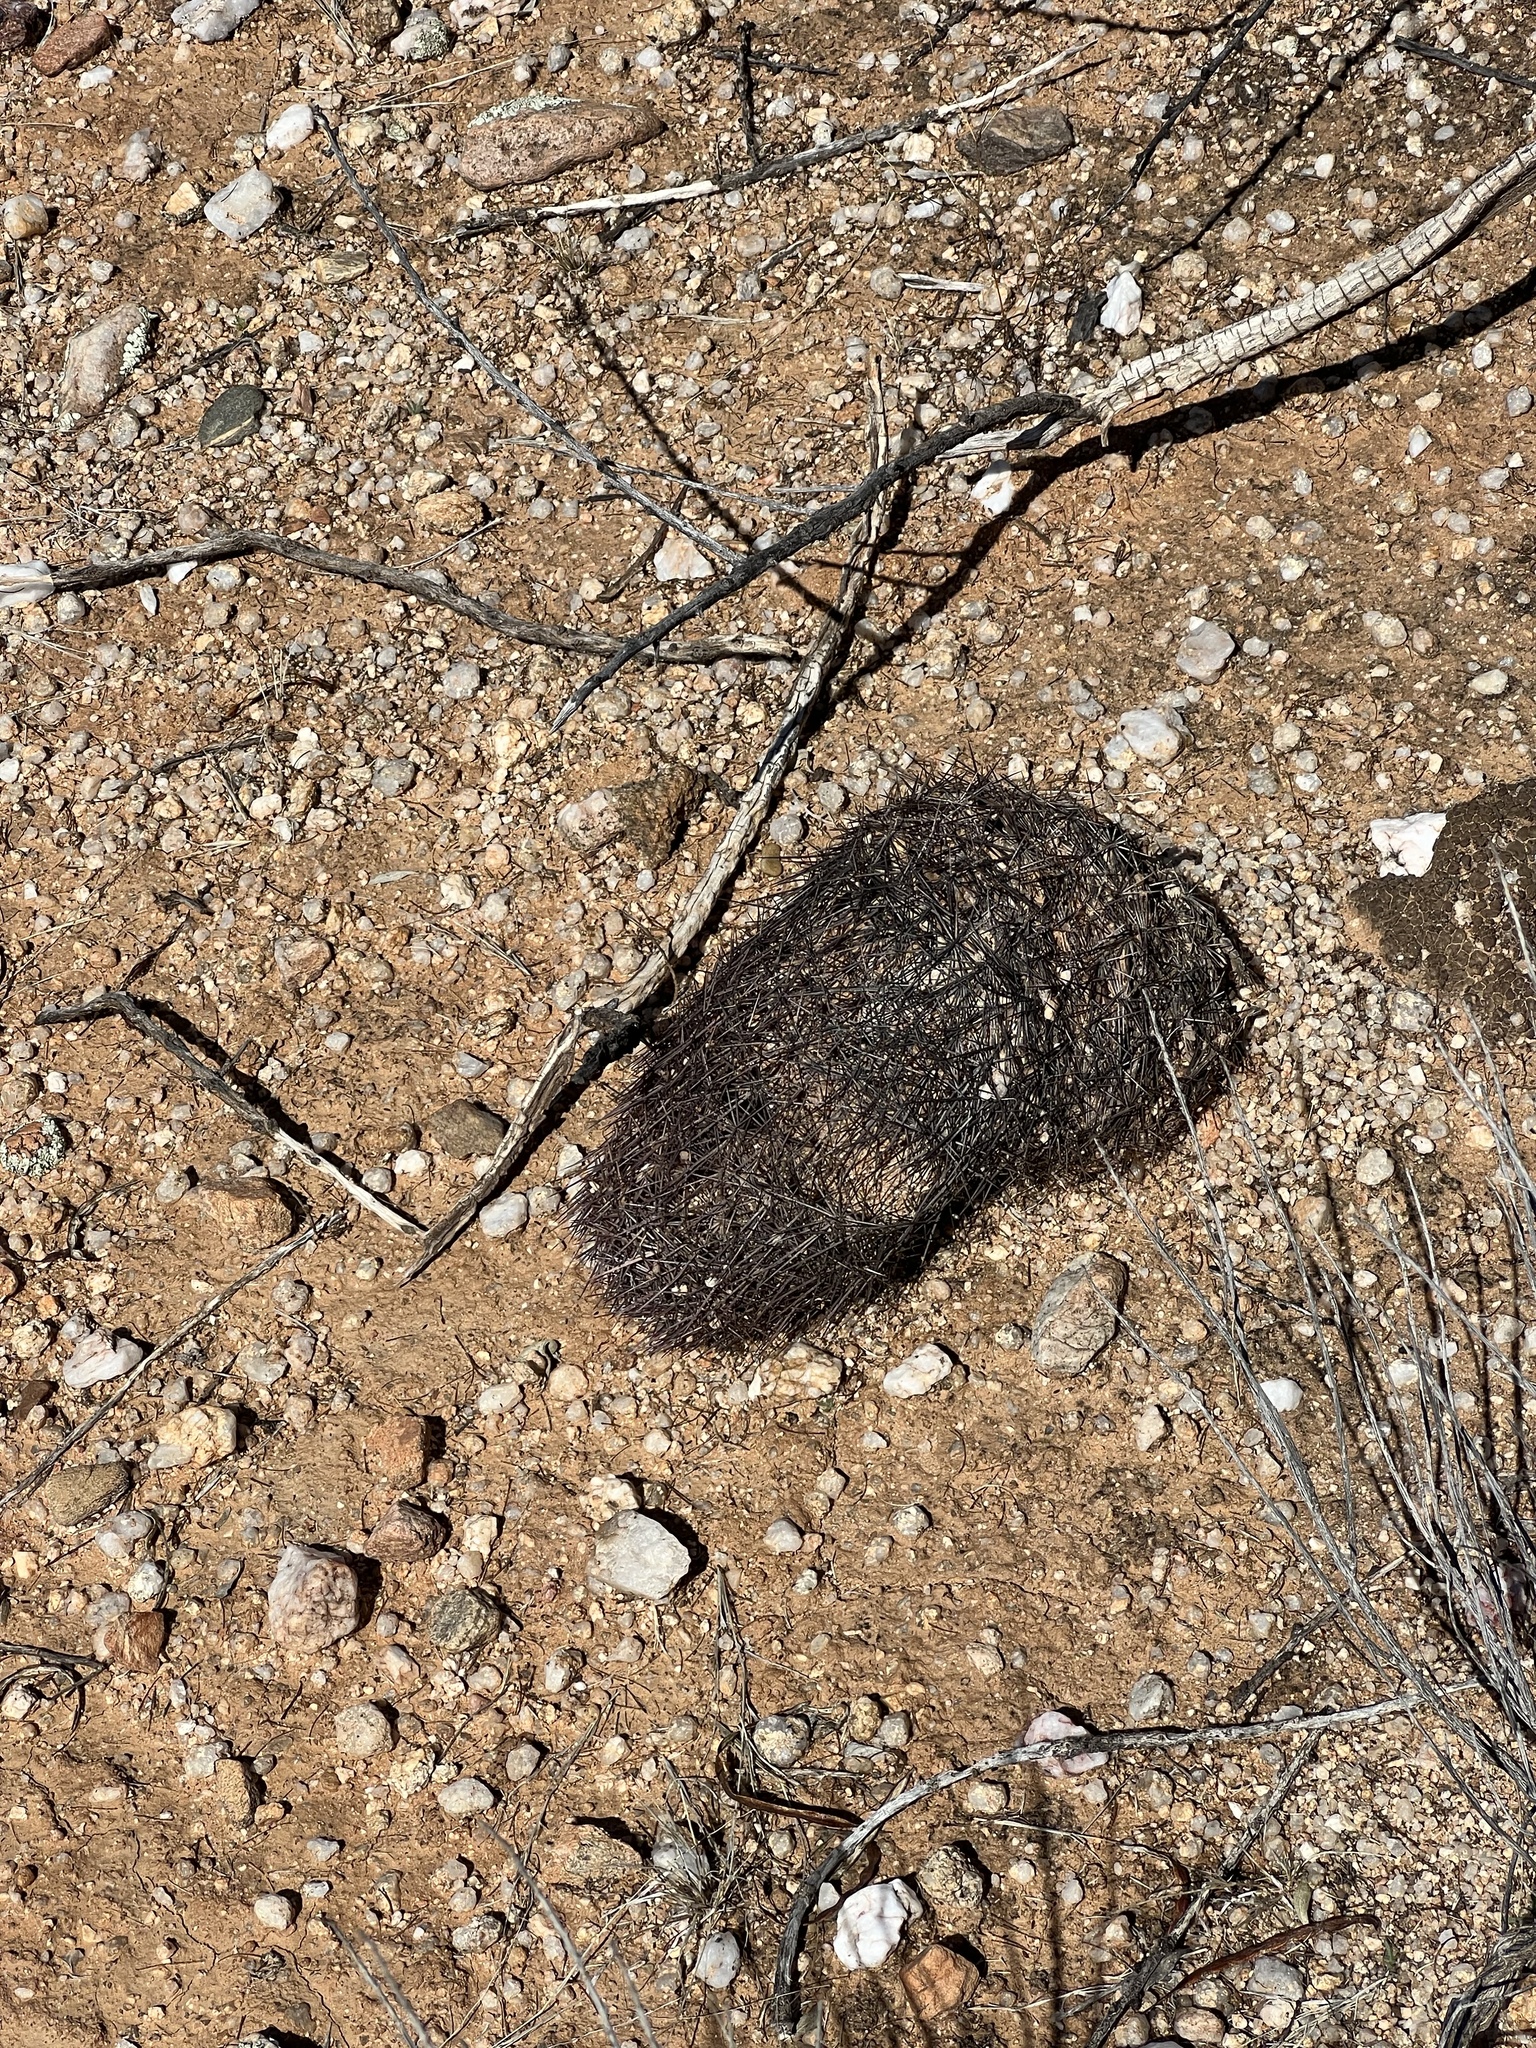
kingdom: Plantae
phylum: Tracheophyta
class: Magnoliopsida
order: Caryophyllales
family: Cactaceae
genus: Sclerocactus
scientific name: Sclerocactus johnsonii
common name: Eight-spine fishhook cactus
